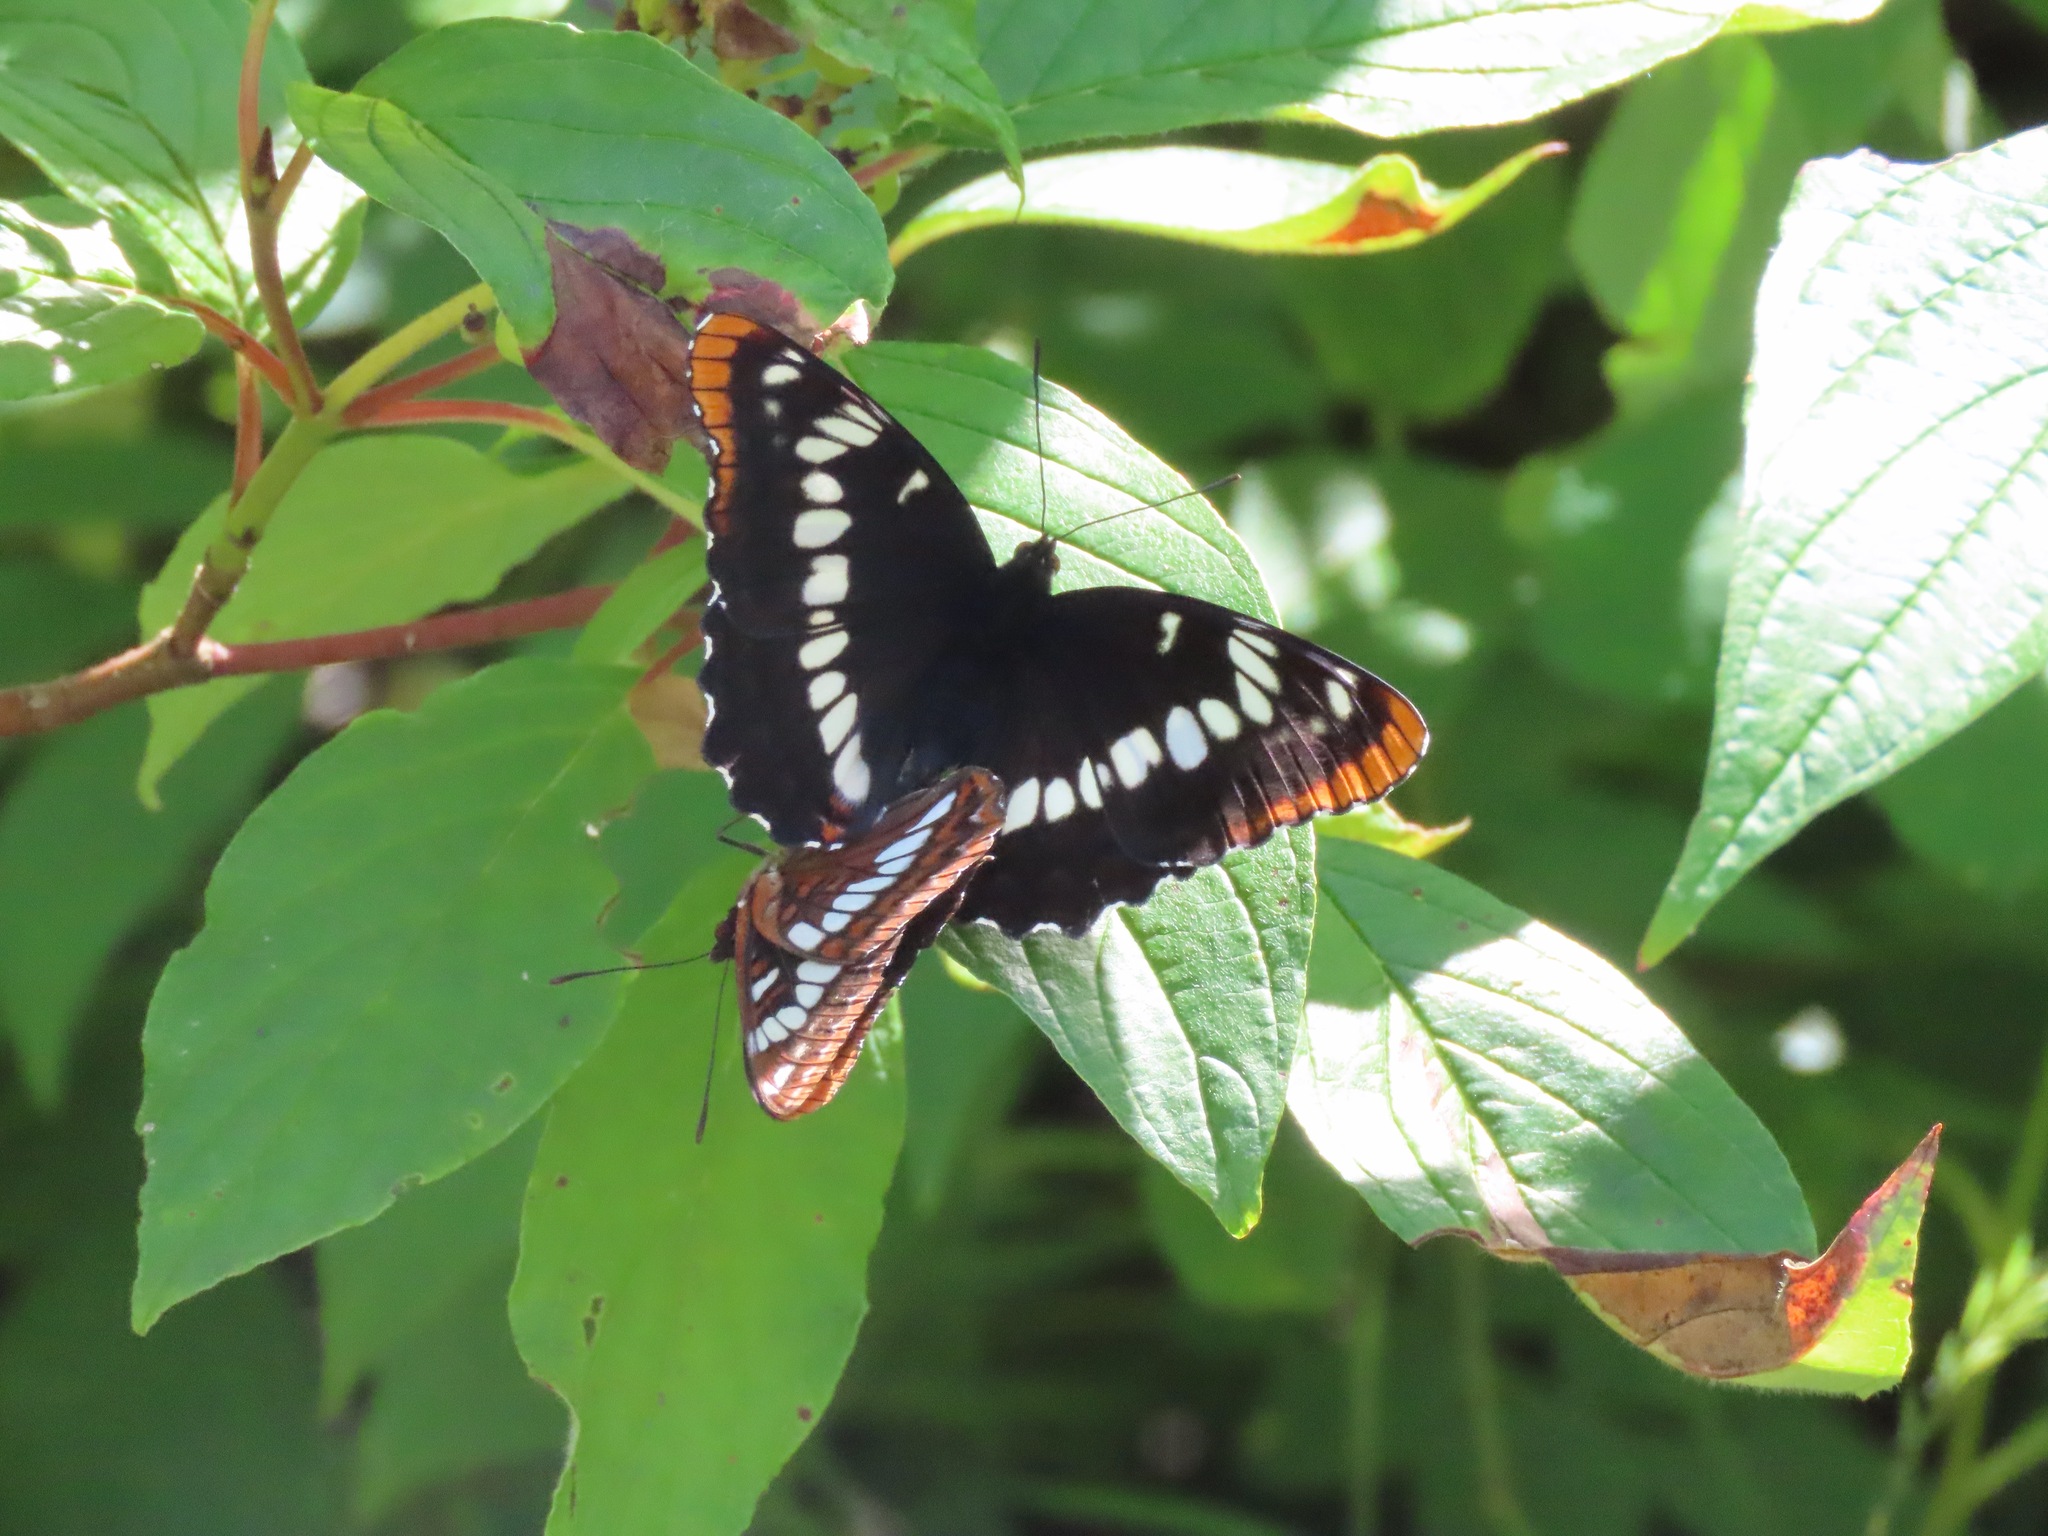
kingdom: Animalia
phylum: Arthropoda
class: Insecta
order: Lepidoptera
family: Nymphalidae
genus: Limenitis
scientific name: Limenitis lorquini
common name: Lorquin's admiral
